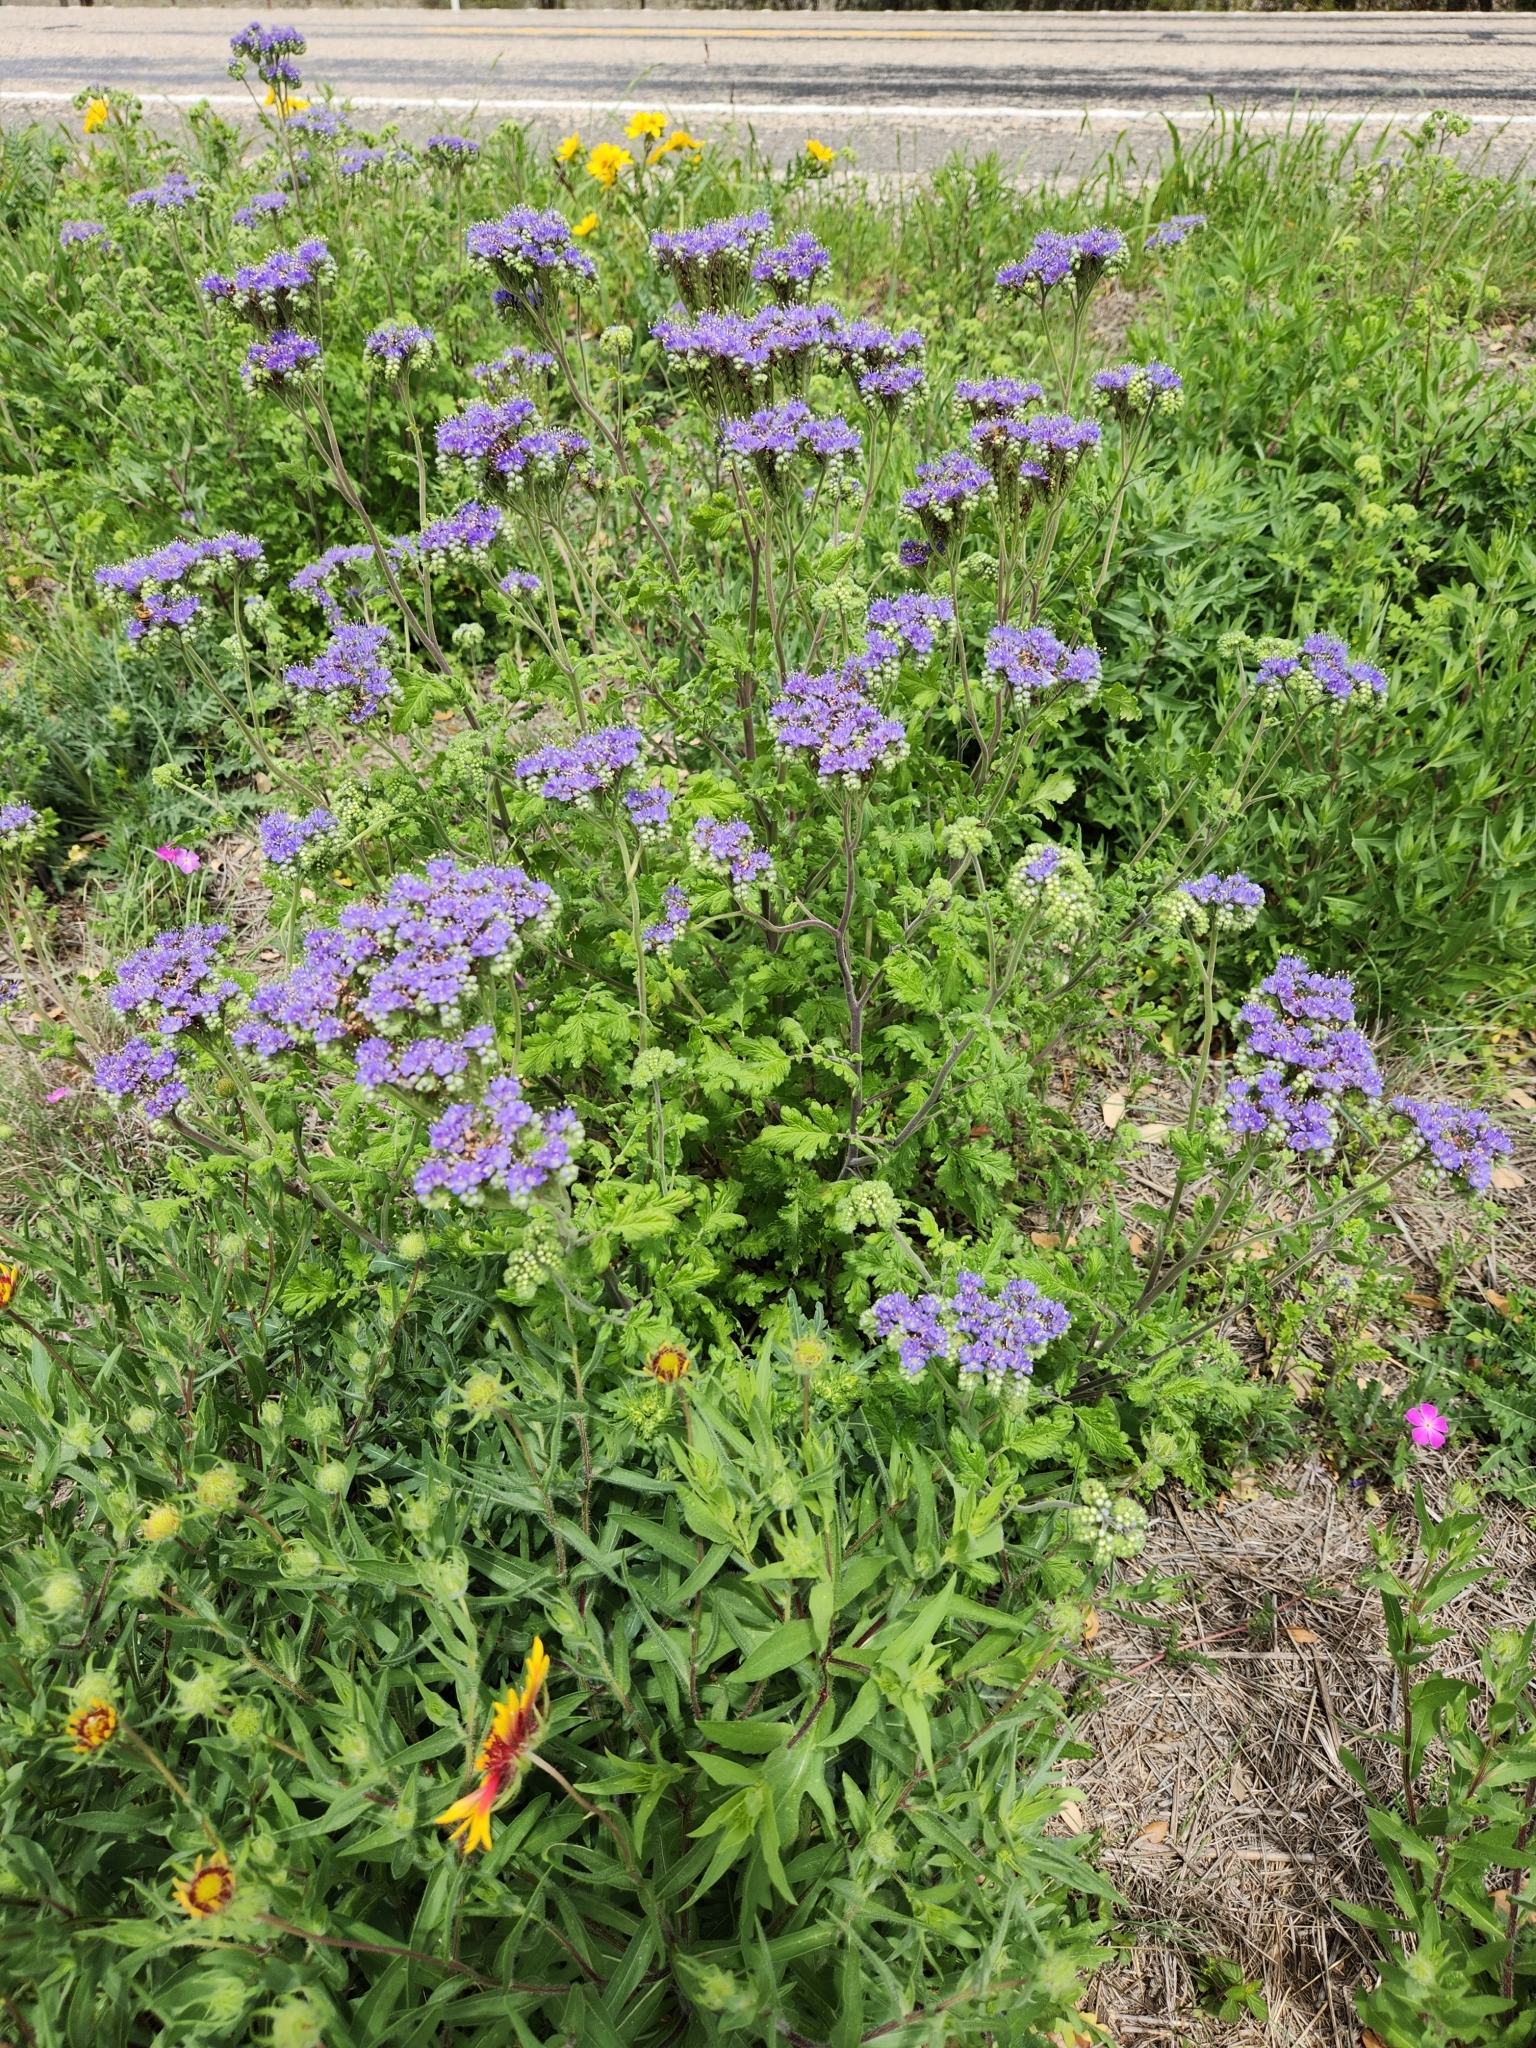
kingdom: Plantae
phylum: Tracheophyta
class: Magnoliopsida
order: Boraginales
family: Hydrophyllaceae
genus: Phacelia
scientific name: Phacelia congesta
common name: Blue curls
